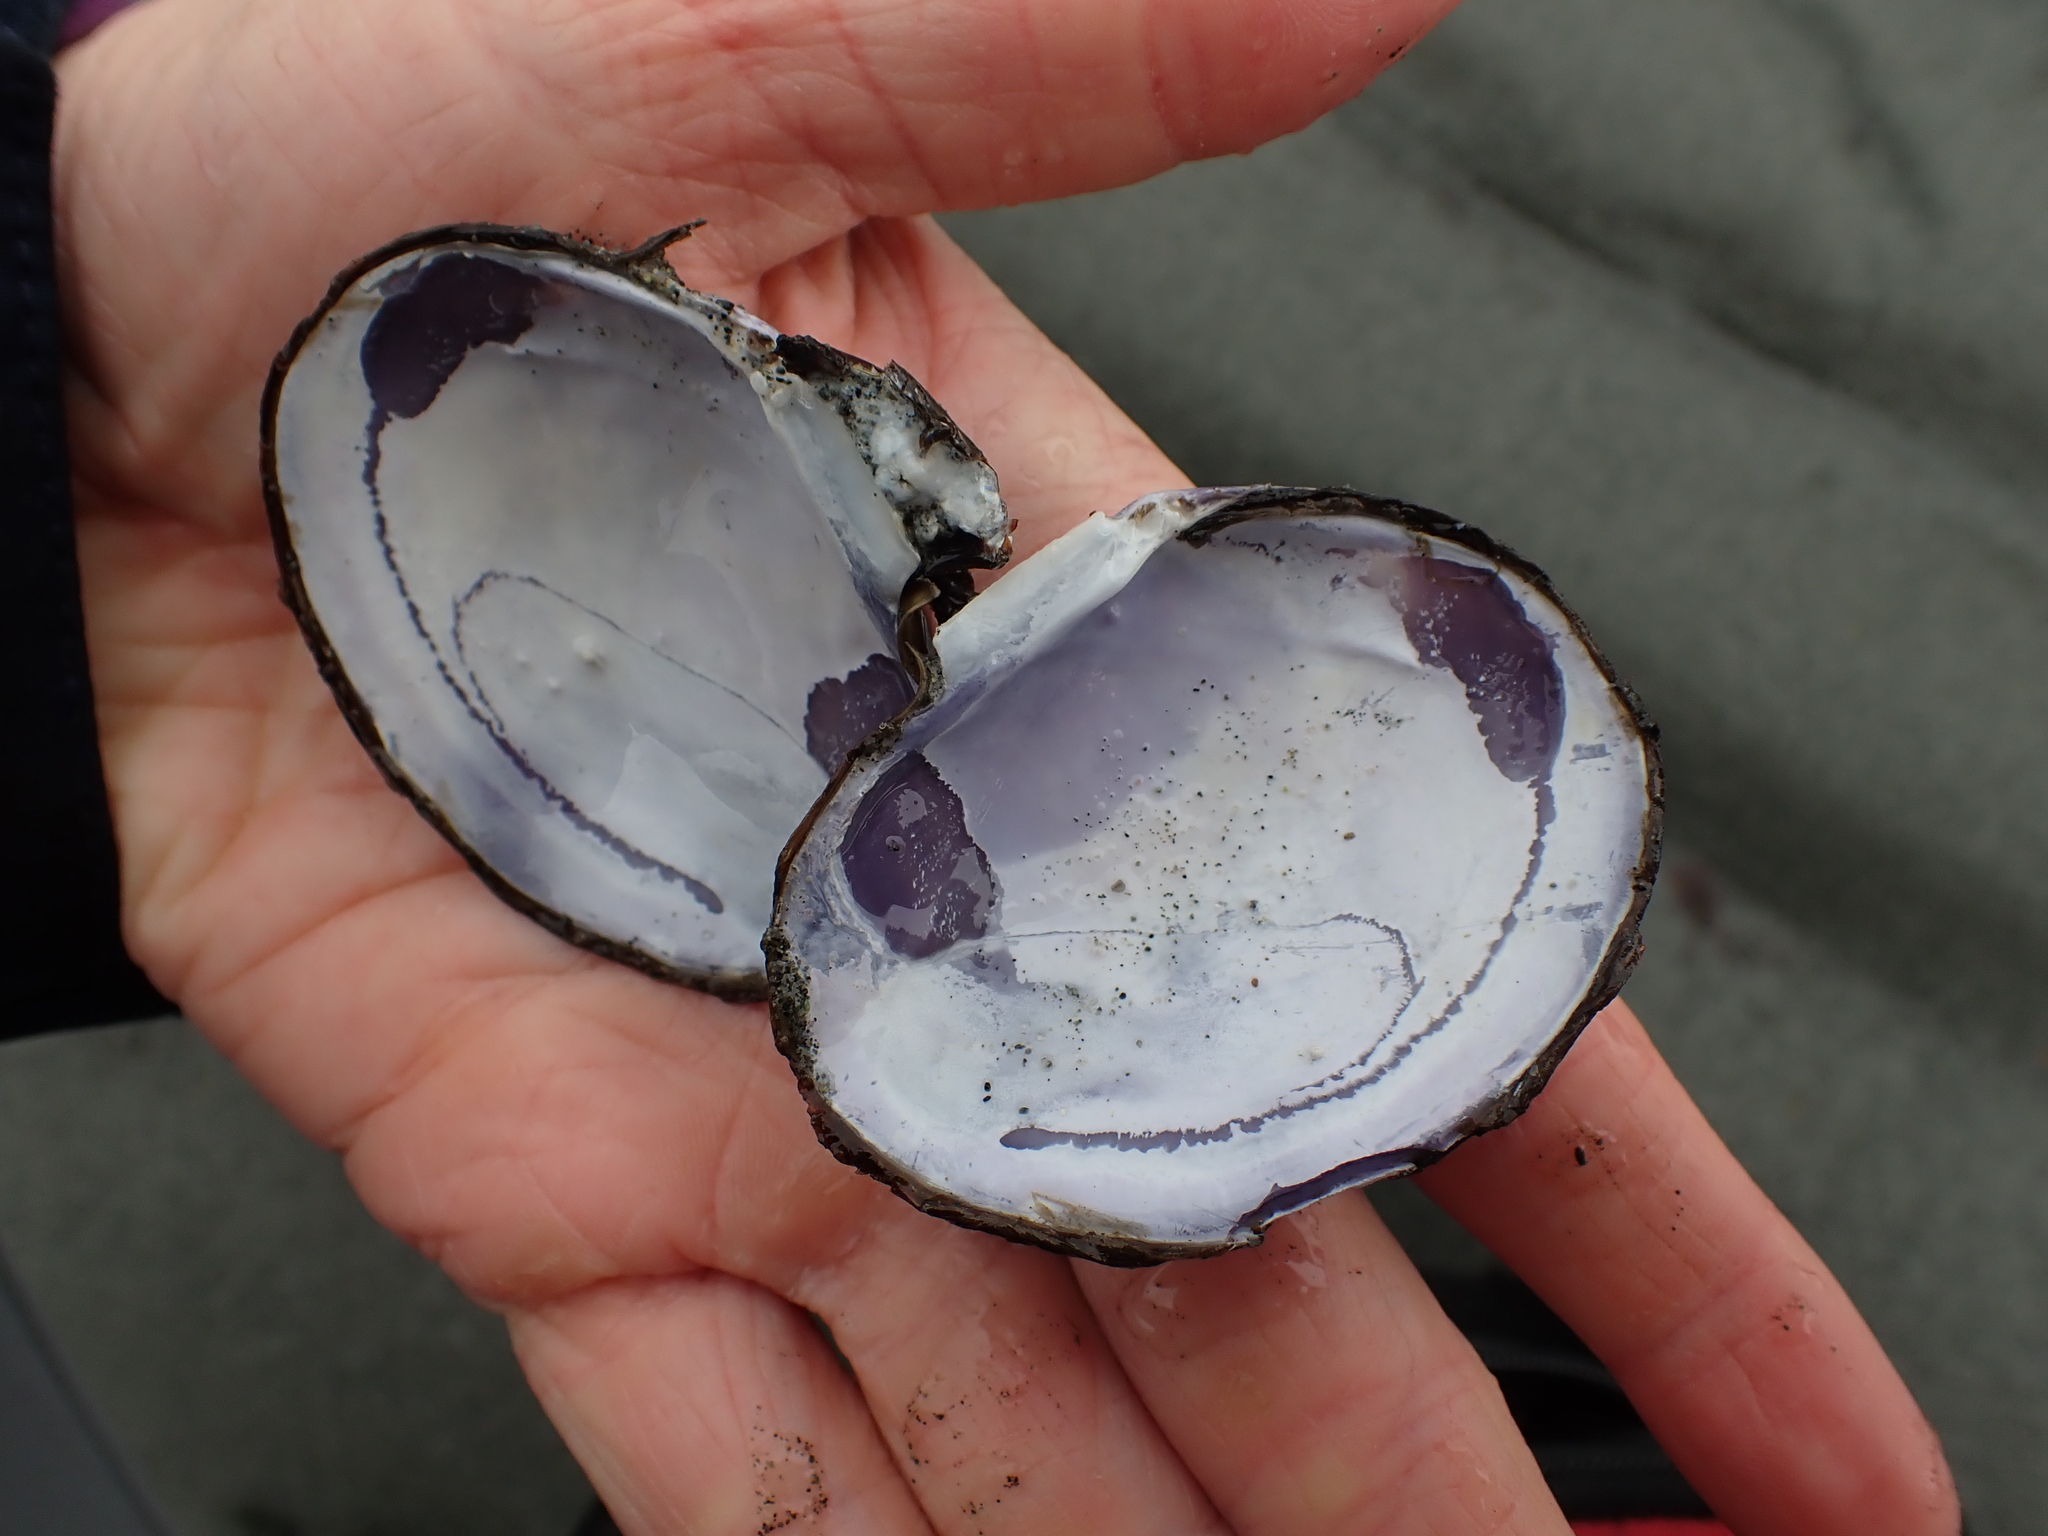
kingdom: Animalia
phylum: Mollusca
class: Bivalvia
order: Cardiida
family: Psammobiidae
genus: Nuttallia
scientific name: Nuttallia obscurata
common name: Purple mahogany-clam
